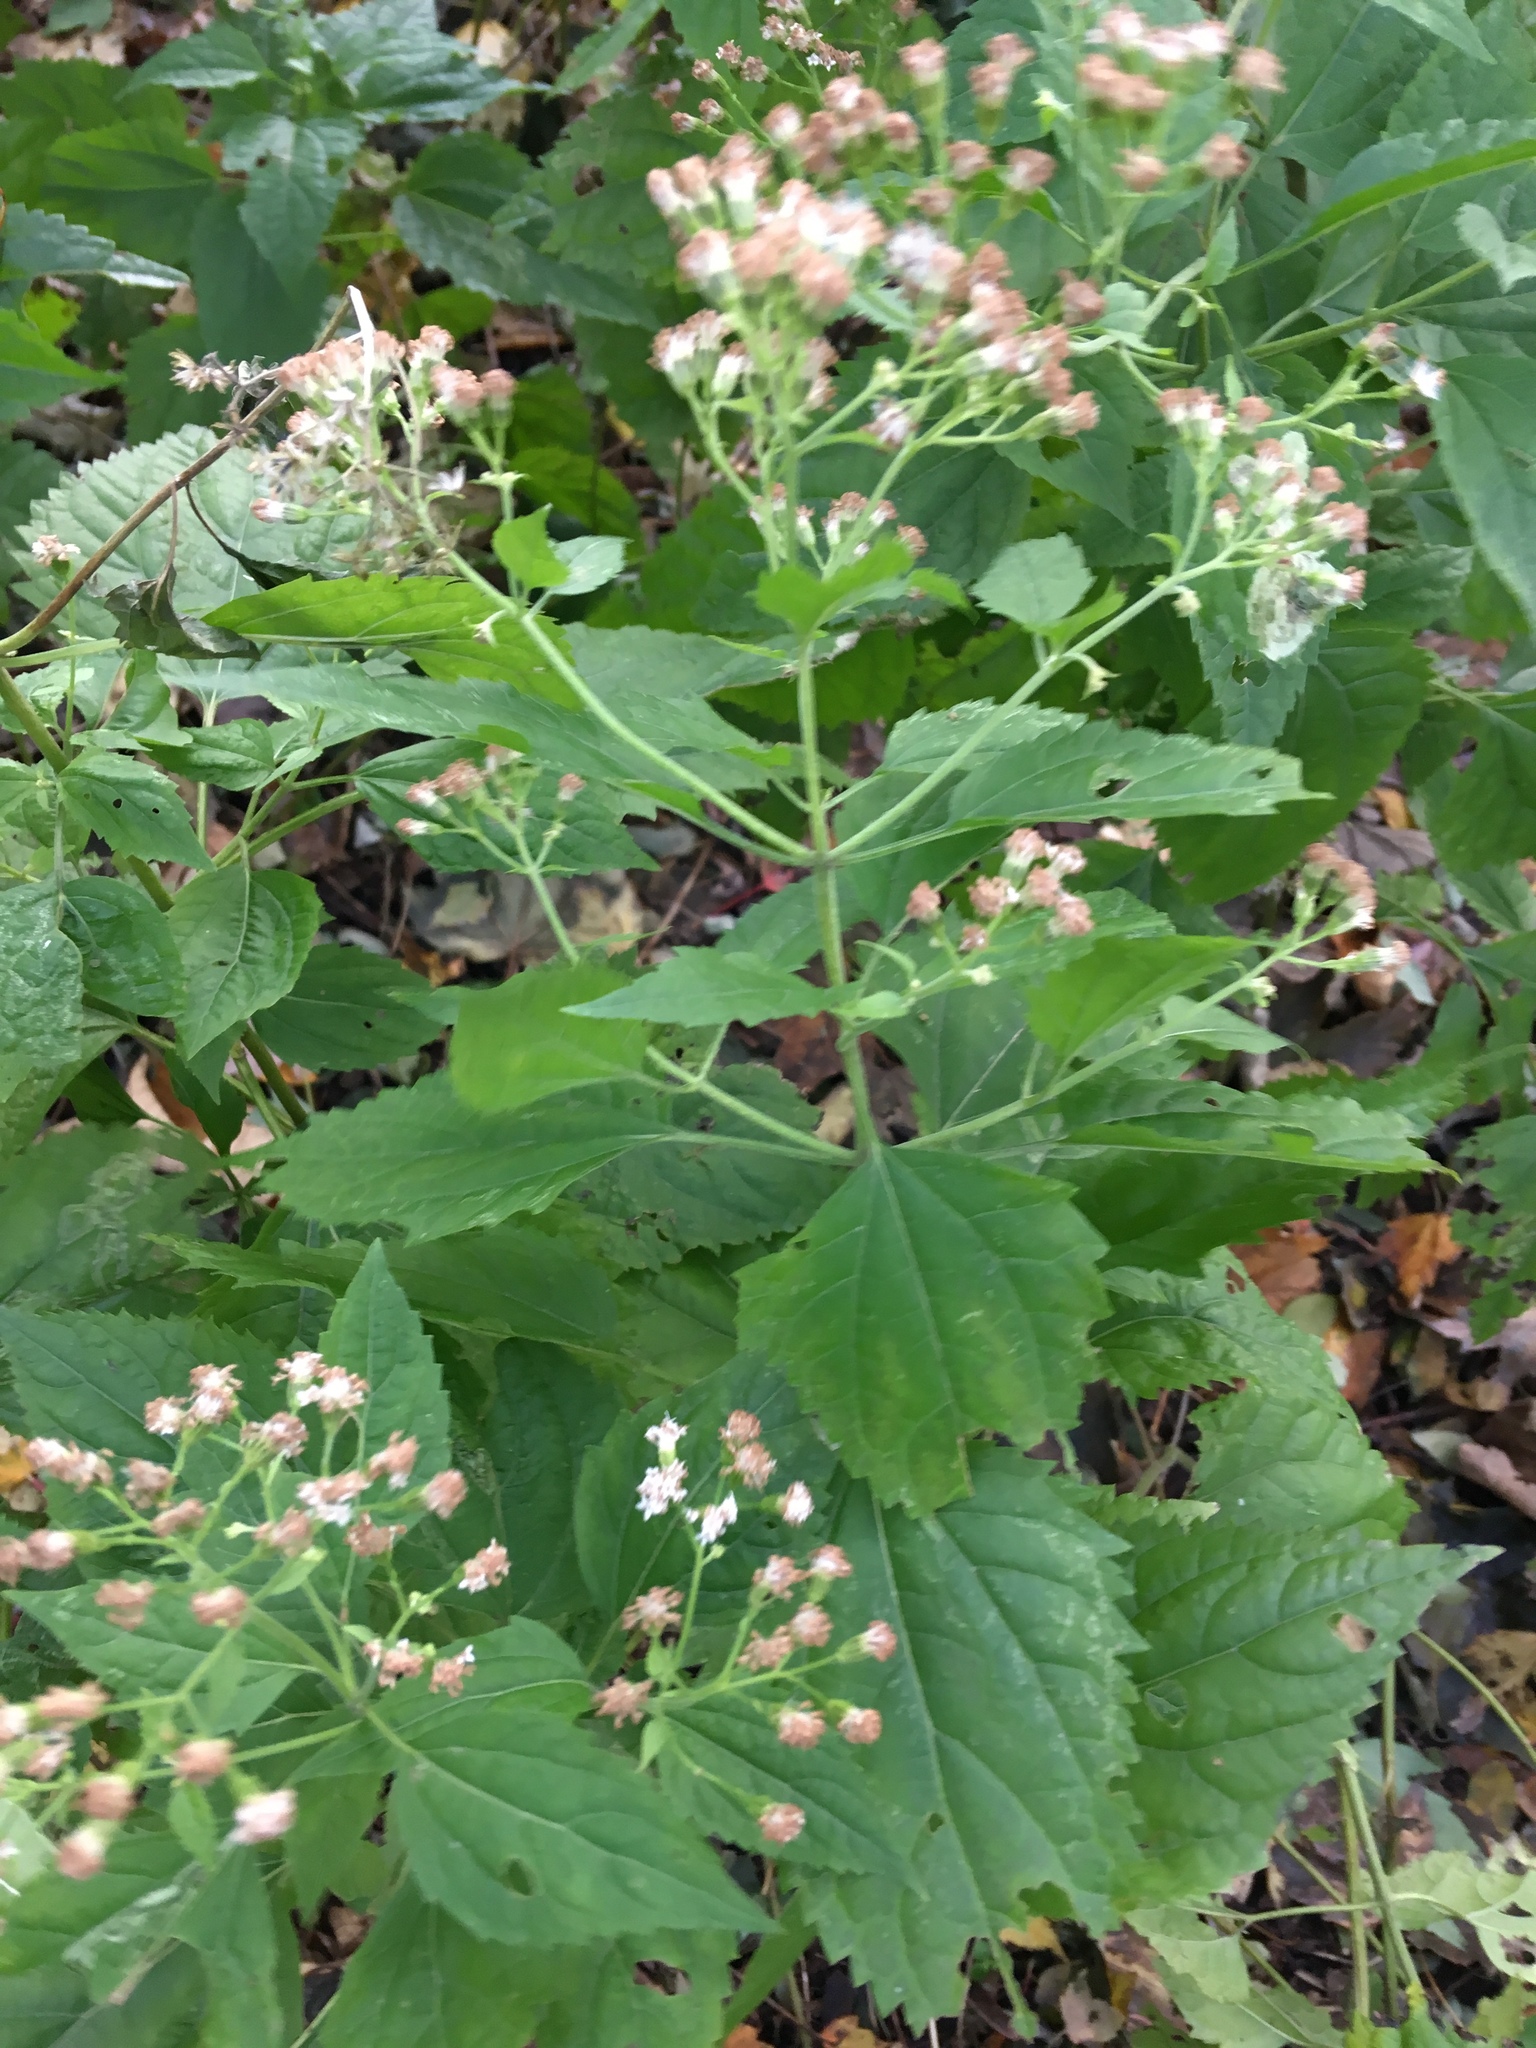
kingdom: Plantae
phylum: Tracheophyta
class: Magnoliopsida
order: Asterales
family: Asteraceae
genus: Ageratina
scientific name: Ageratina altissima
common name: White snakeroot
